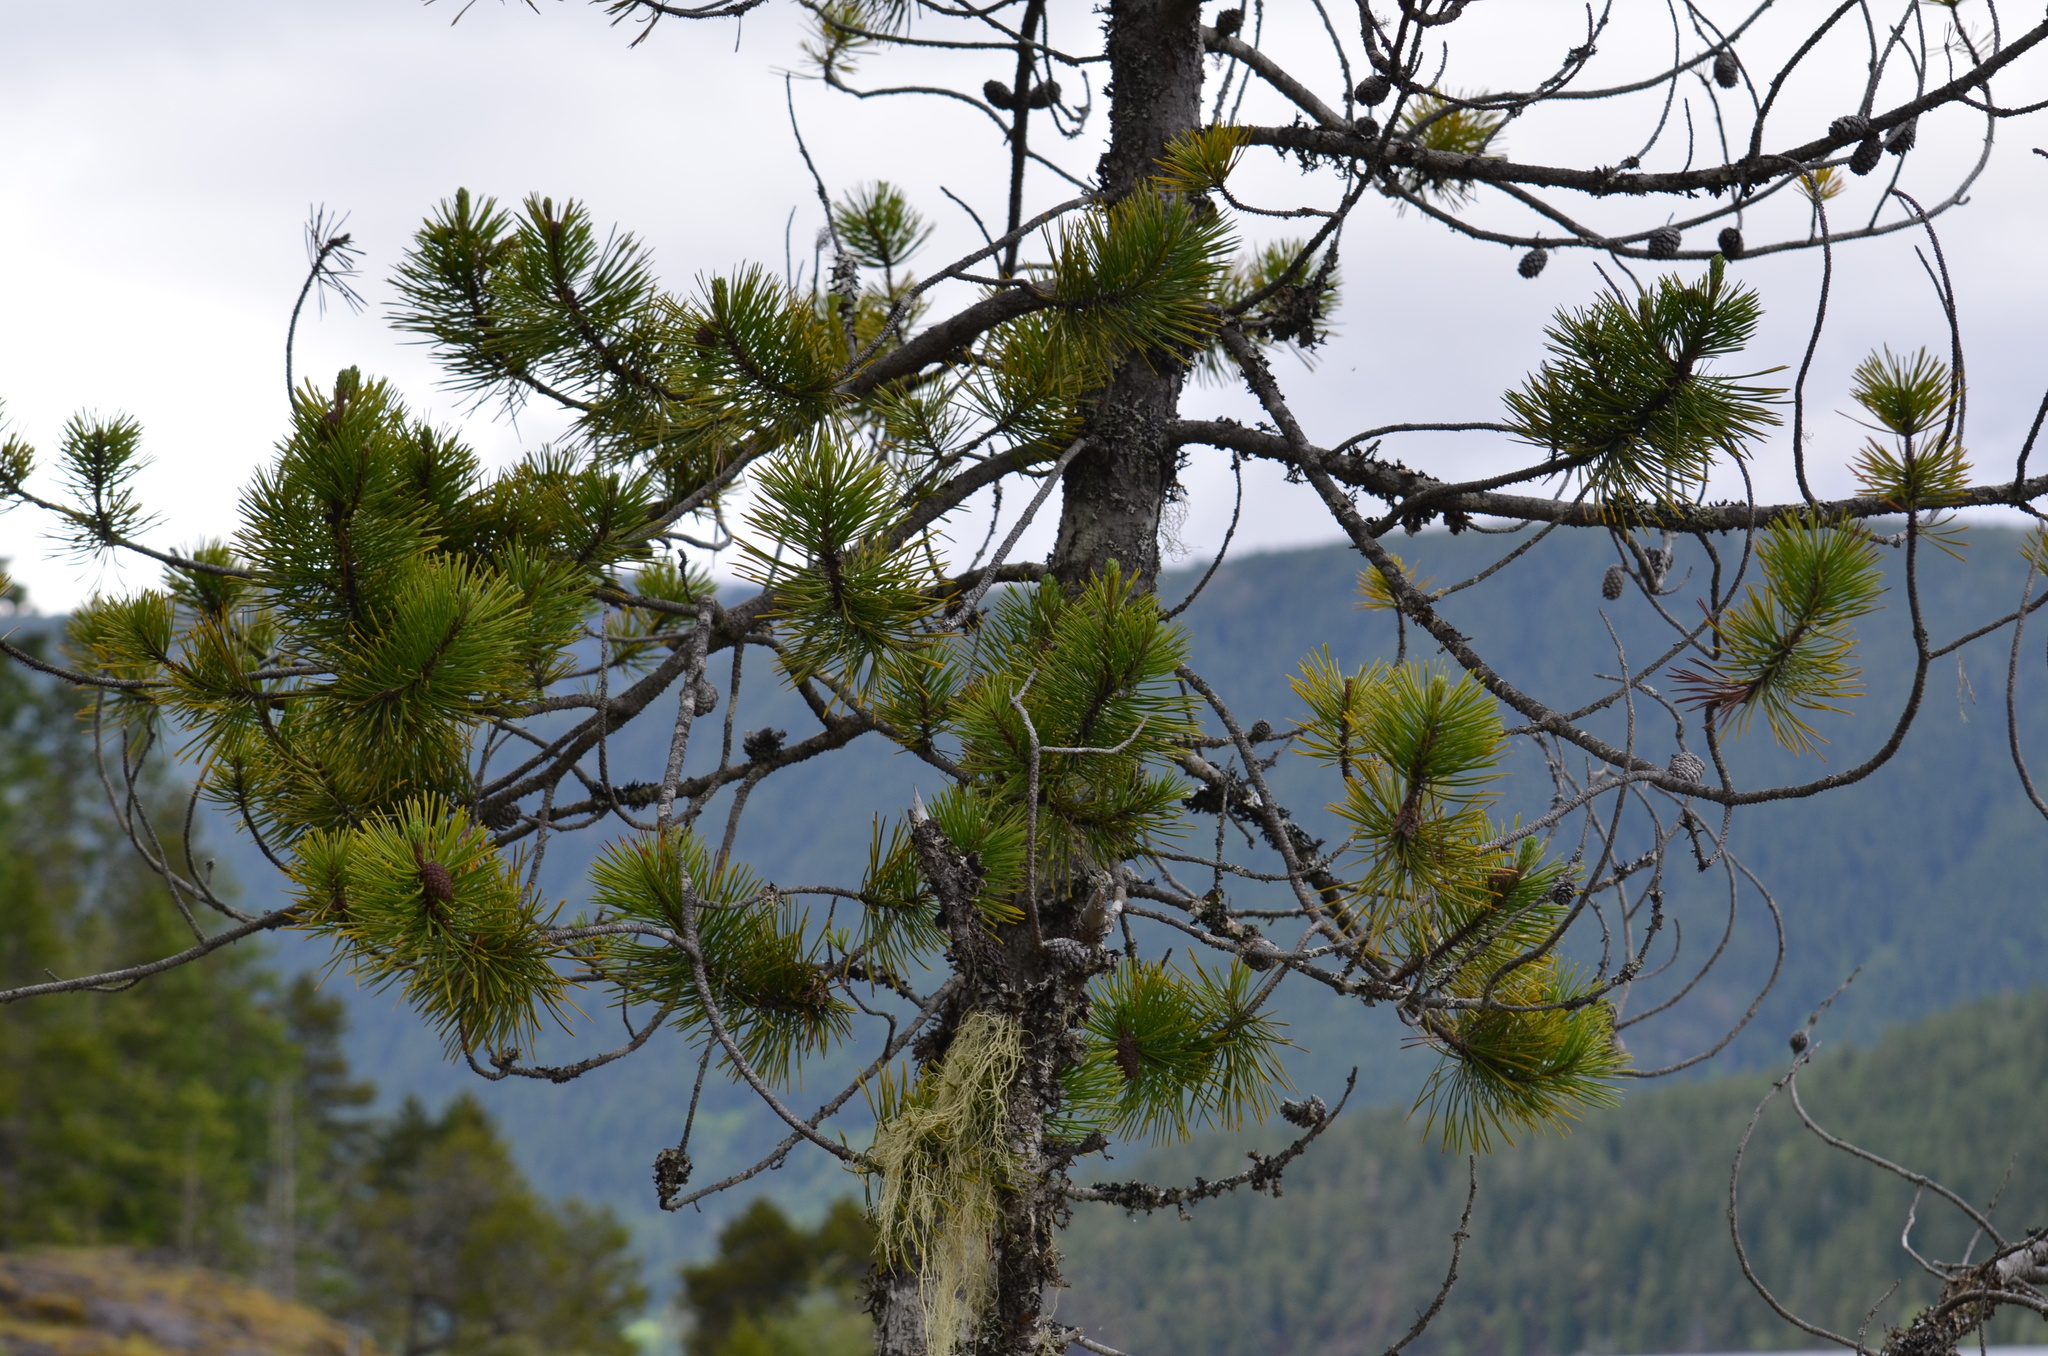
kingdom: Plantae
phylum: Tracheophyta
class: Pinopsida
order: Pinales
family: Pinaceae
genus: Pinus
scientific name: Pinus contorta
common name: Lodgepole pine
